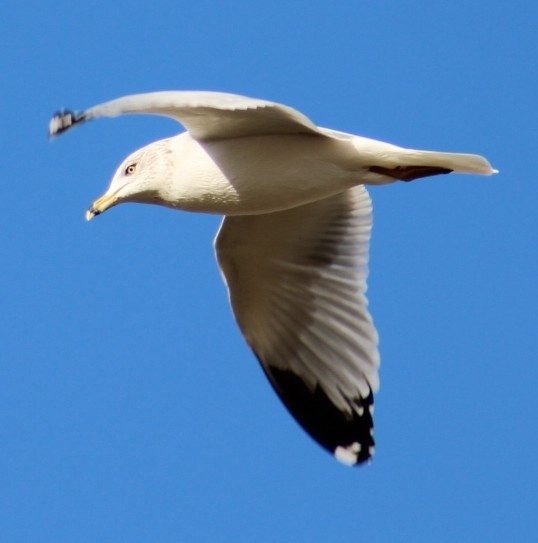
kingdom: Animalia
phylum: Chordata
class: Aves
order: Charadriiformes
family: Laridae
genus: Larus
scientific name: Larus delawarensis
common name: Ring-billed gull
